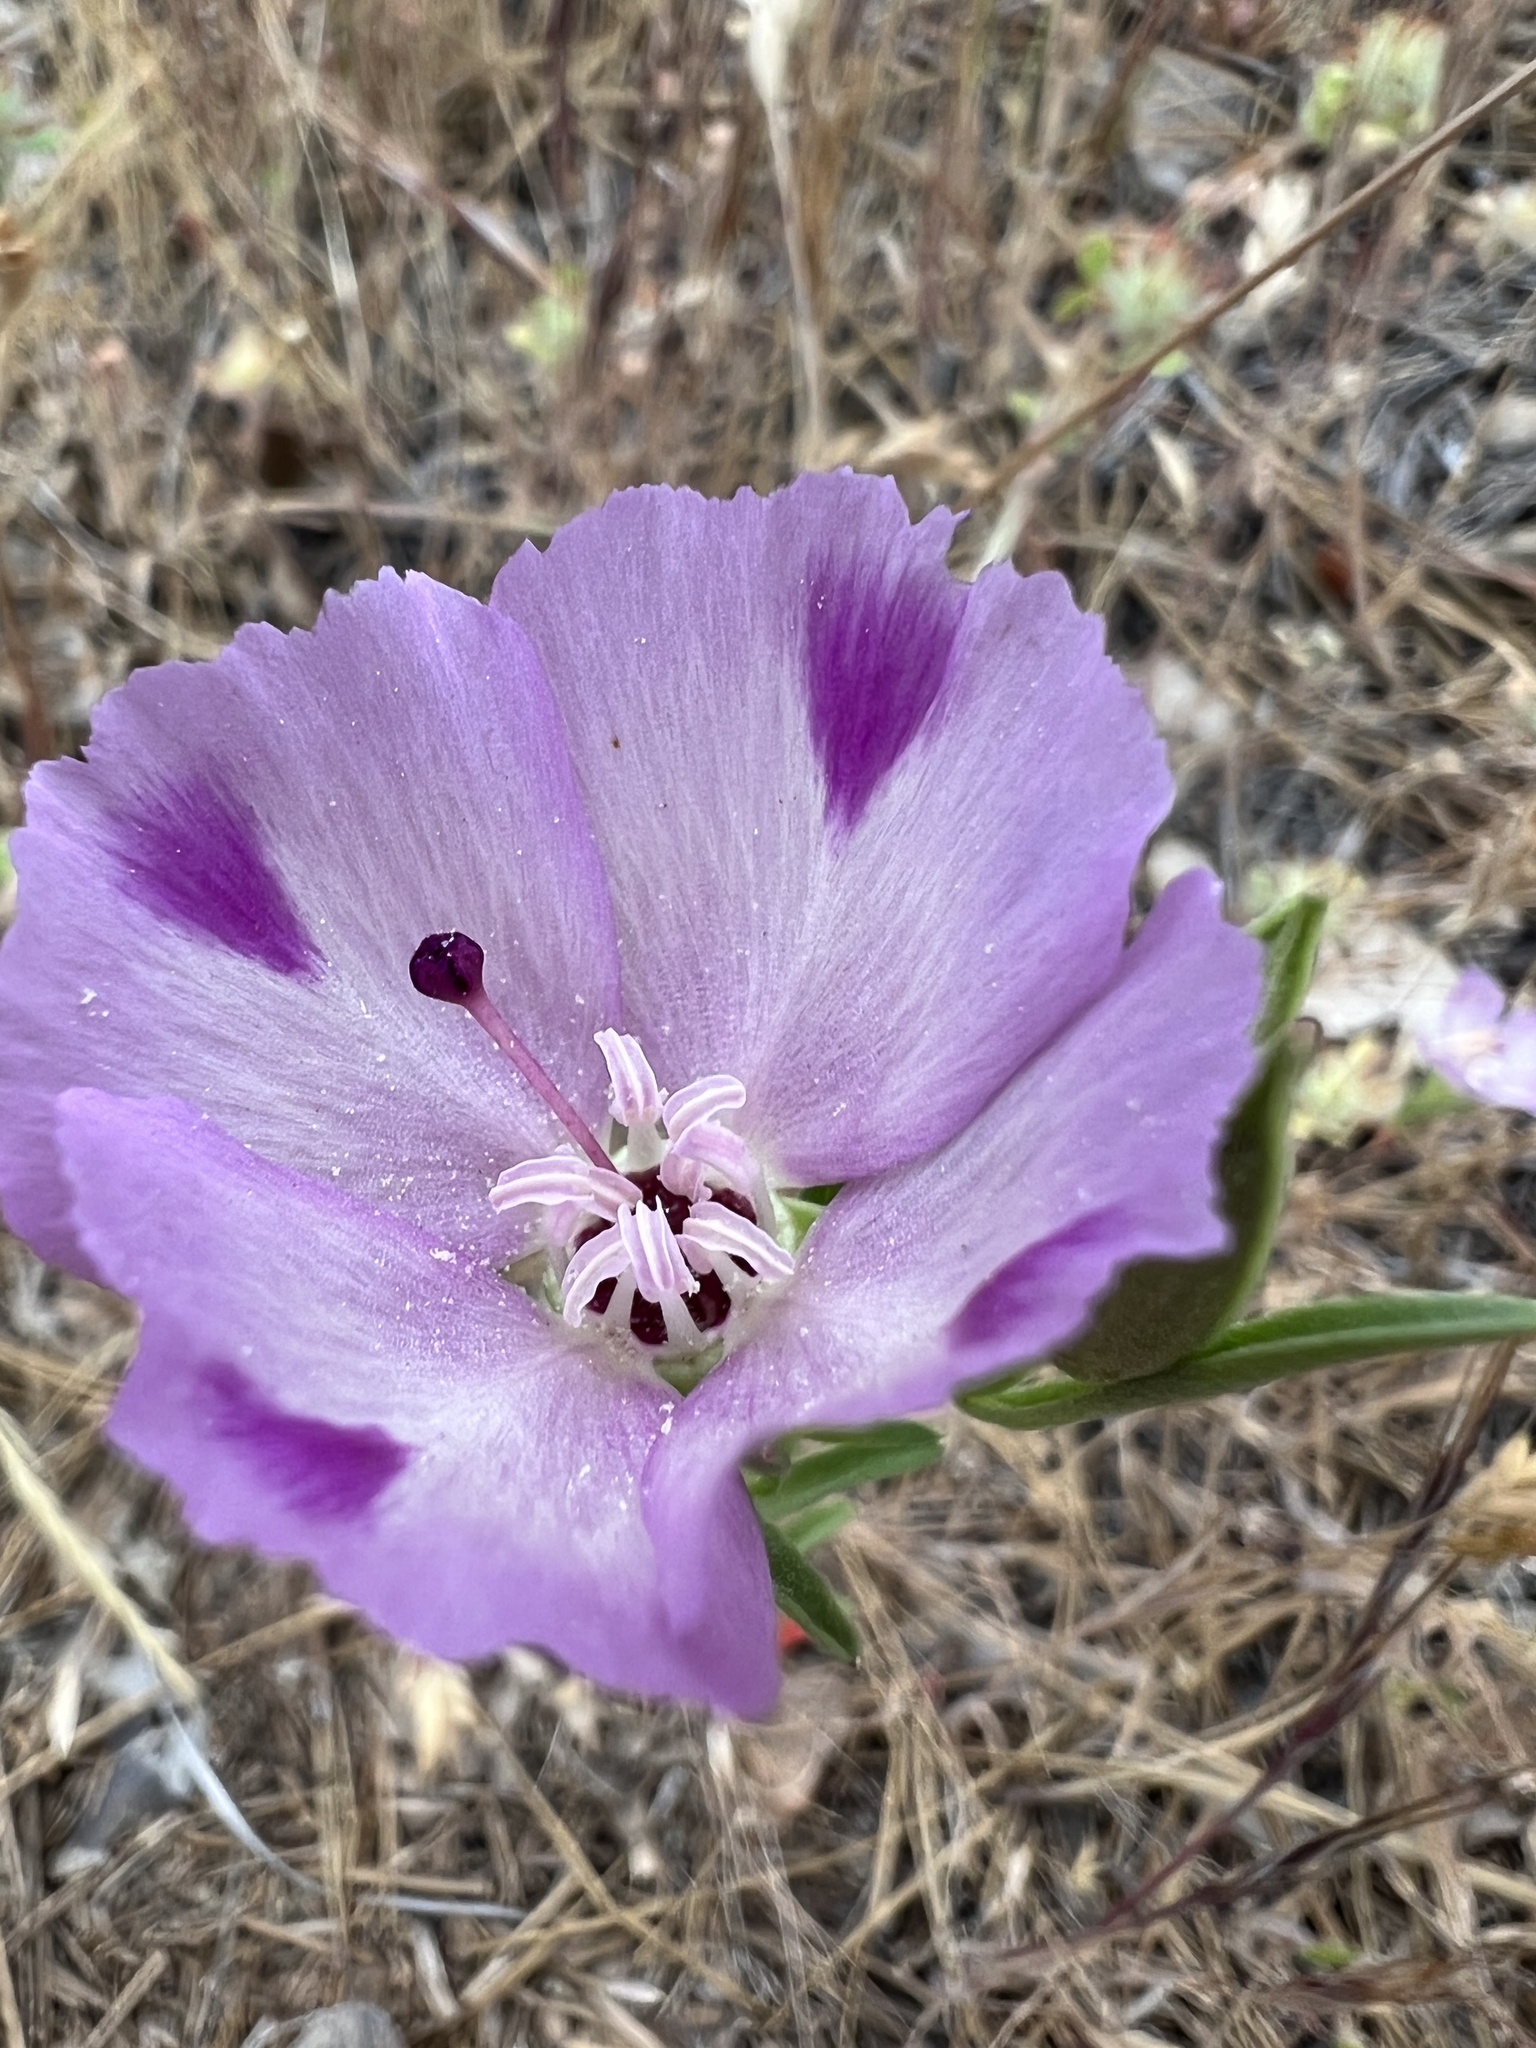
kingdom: Plantae
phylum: Tracheophyta
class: Magnoliopsida
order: Myrtales
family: Onagraceae
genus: Clarkia
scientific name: Clarkia purpurea
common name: Purple clarkia
